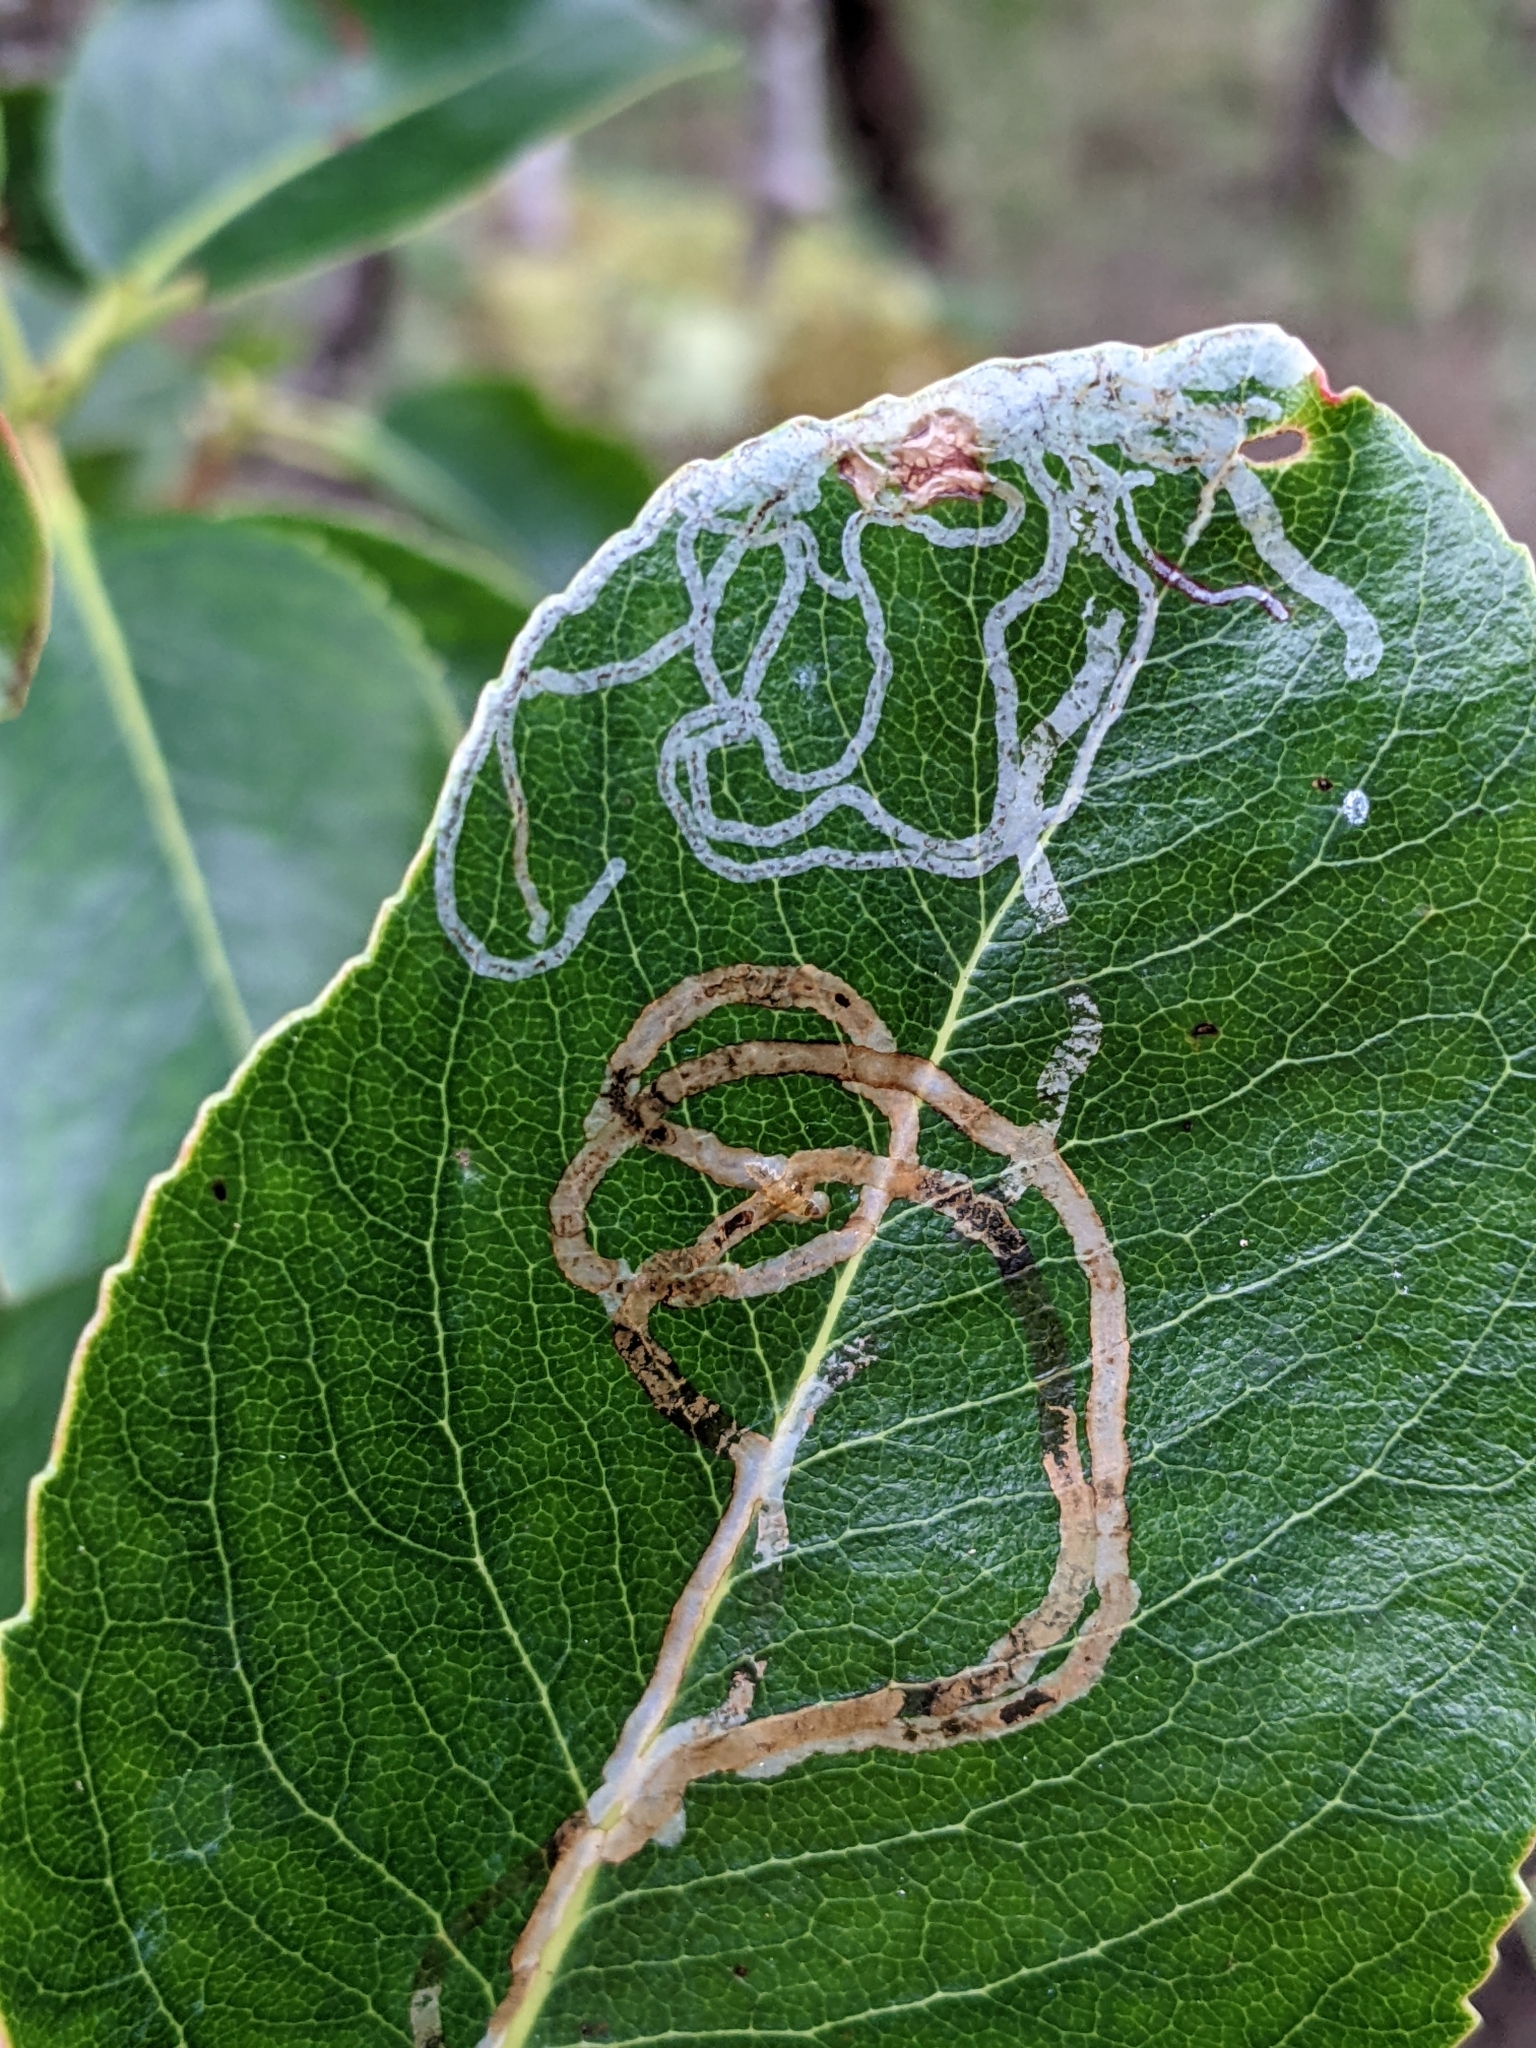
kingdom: Animalia
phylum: Arthropoda
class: Insecta
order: Lepidoptera
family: Gracillariidae
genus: Marmara
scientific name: Marmara arbutiella
